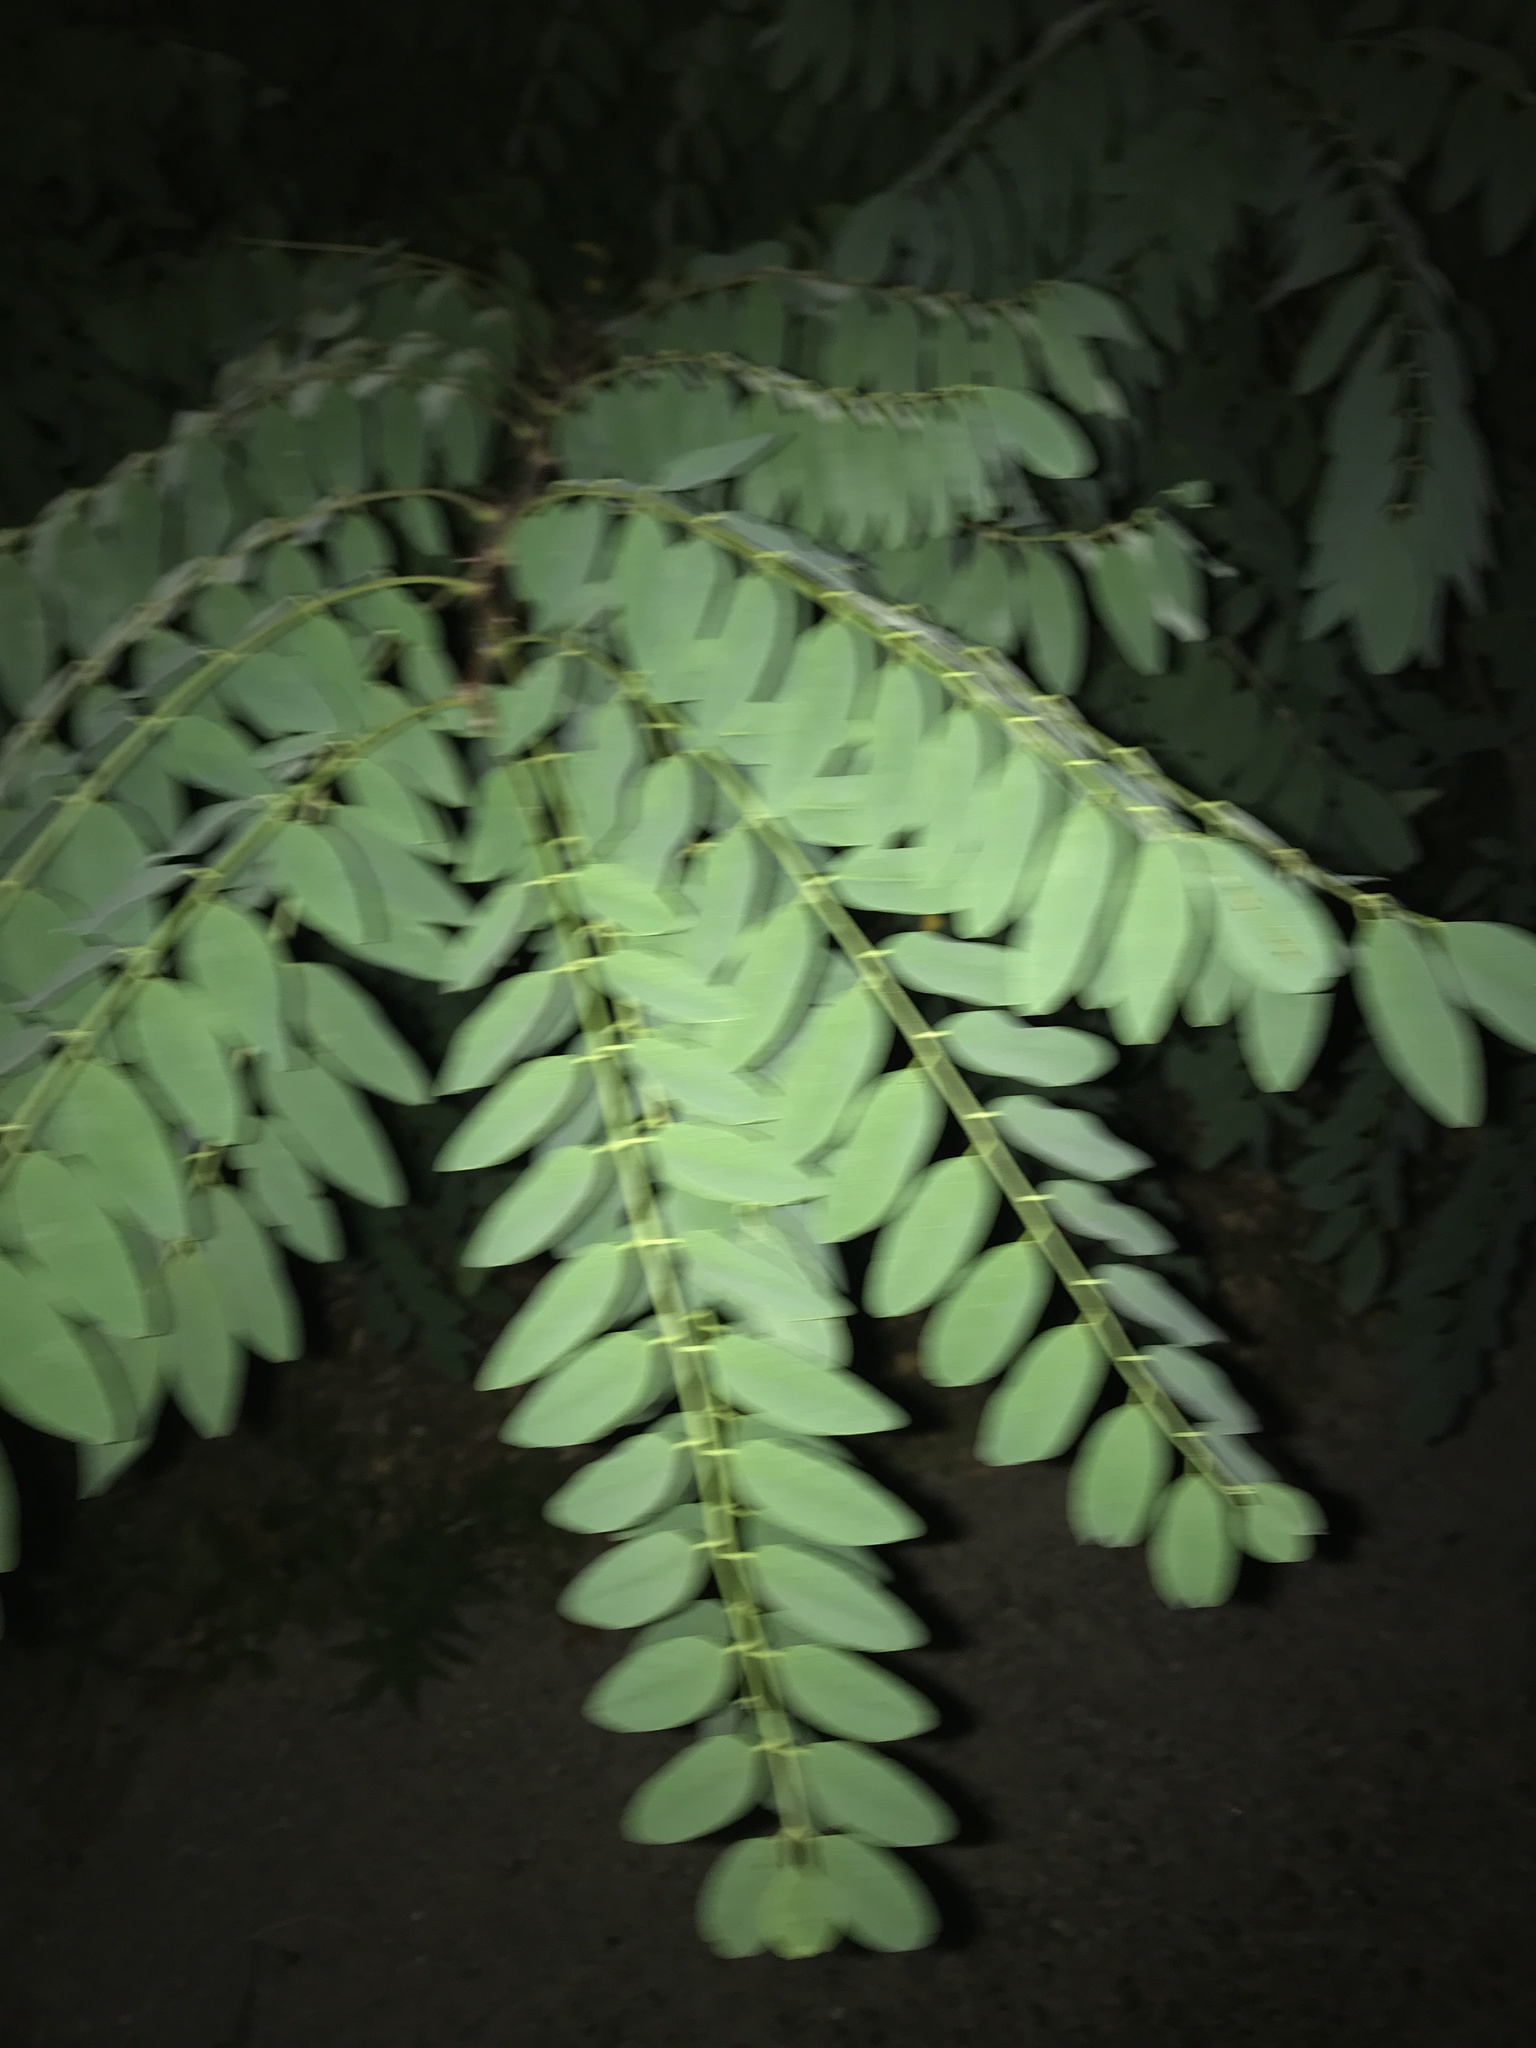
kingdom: Plantae
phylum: Tracheophyta
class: Magnoliopsida
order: Fabales
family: Fabaceae
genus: Robinia
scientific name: Robinia pseudoacacia
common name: Black locust
